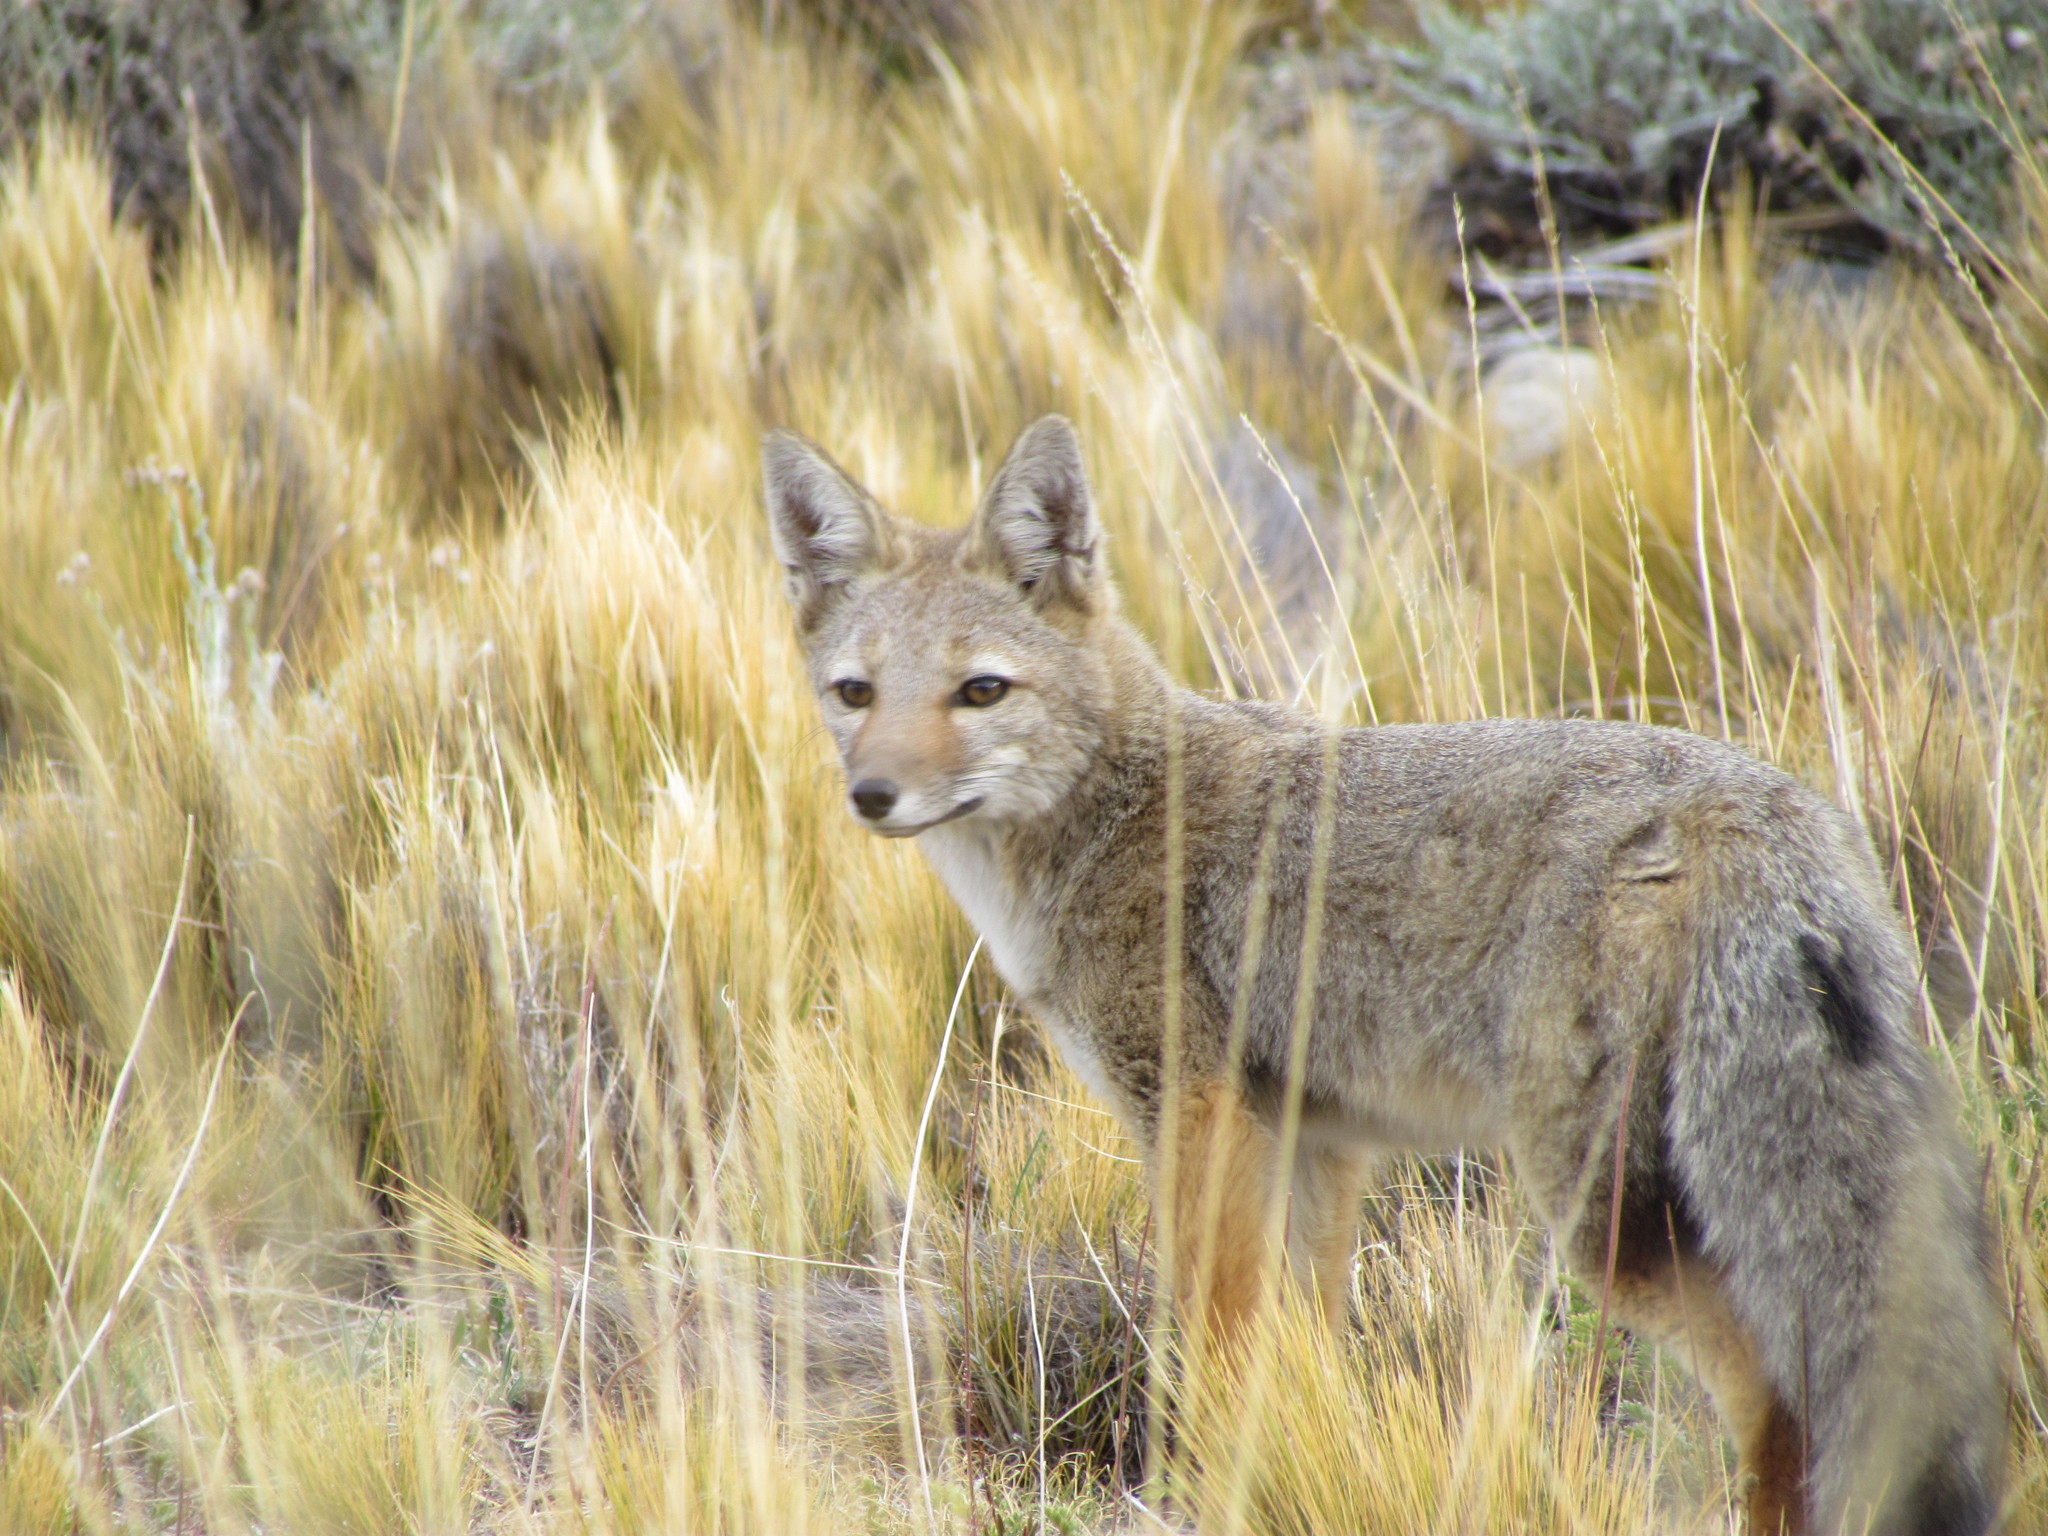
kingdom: Animalia
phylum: Chordata
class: Mammalia
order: Carnivora
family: Canidae
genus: Lycalopex
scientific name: Lycalopex gymnocercus
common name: Pampas fox
